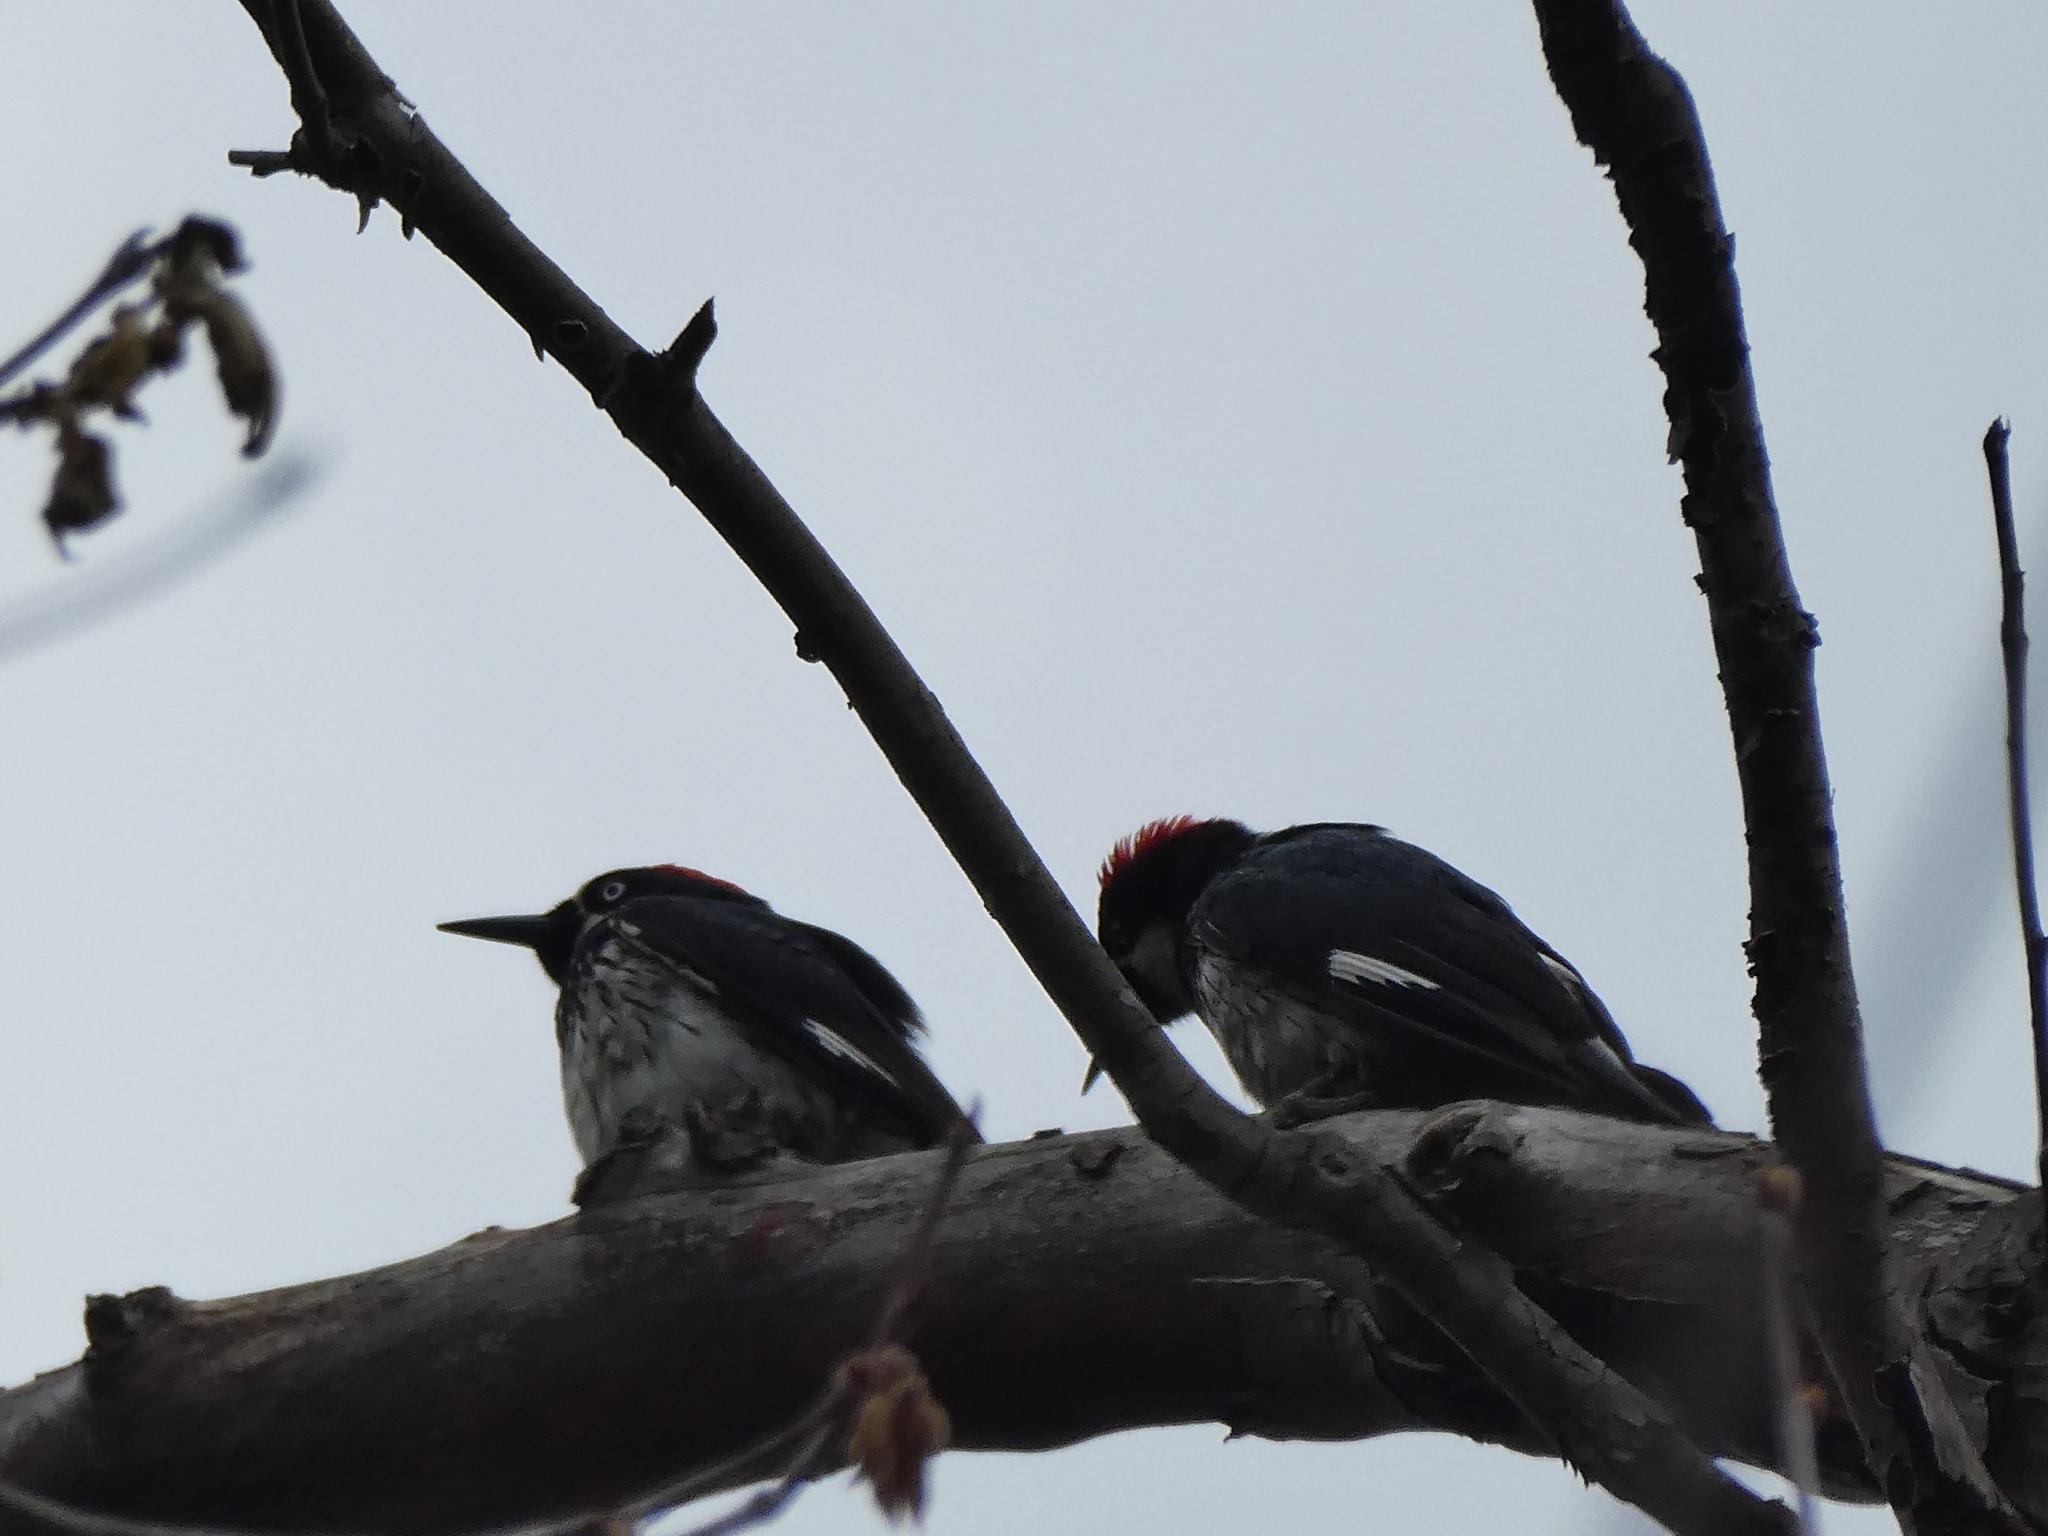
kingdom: Animalia
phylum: Chordata
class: Aves
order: Piciformes
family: Picidae
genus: Melanerpes
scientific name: Melanerpes formicivorus
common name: Acorn woodpecker
